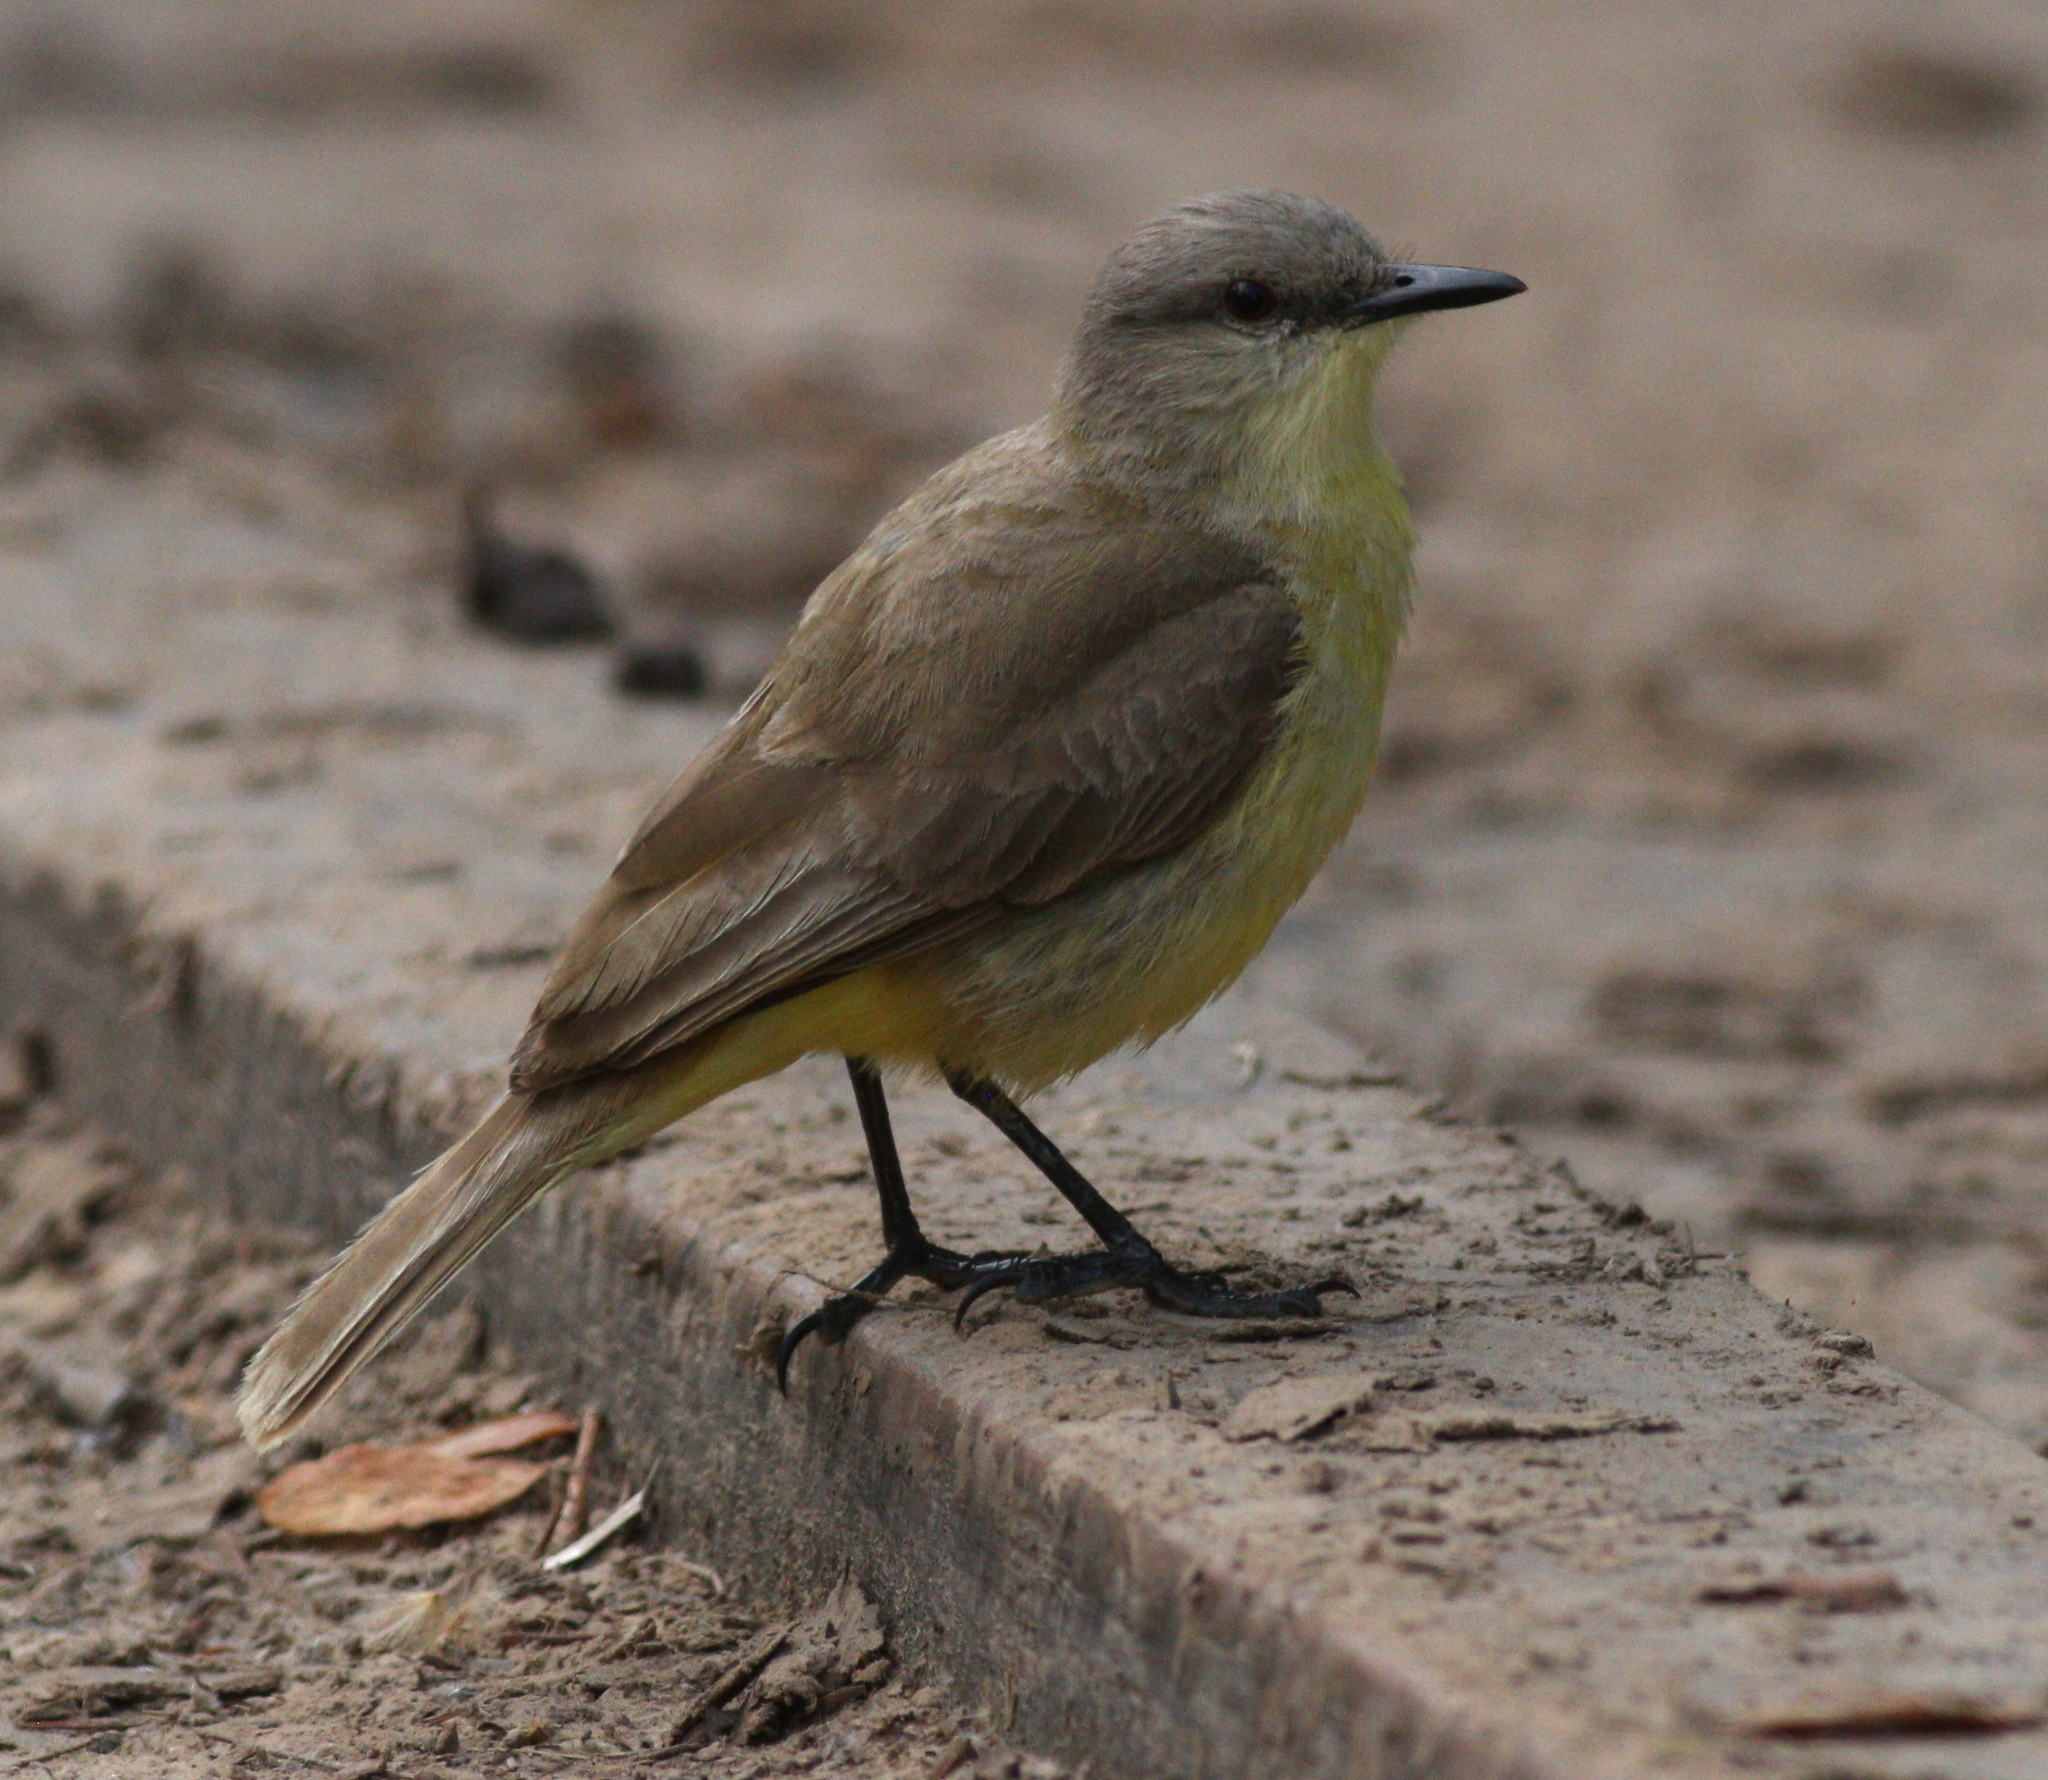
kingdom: Animalia
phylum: Chordata
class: Aves
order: Passeriformes
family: Tyrannidae
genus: Machetornis
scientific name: Machetornis rixosa
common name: Cattle tyrant
